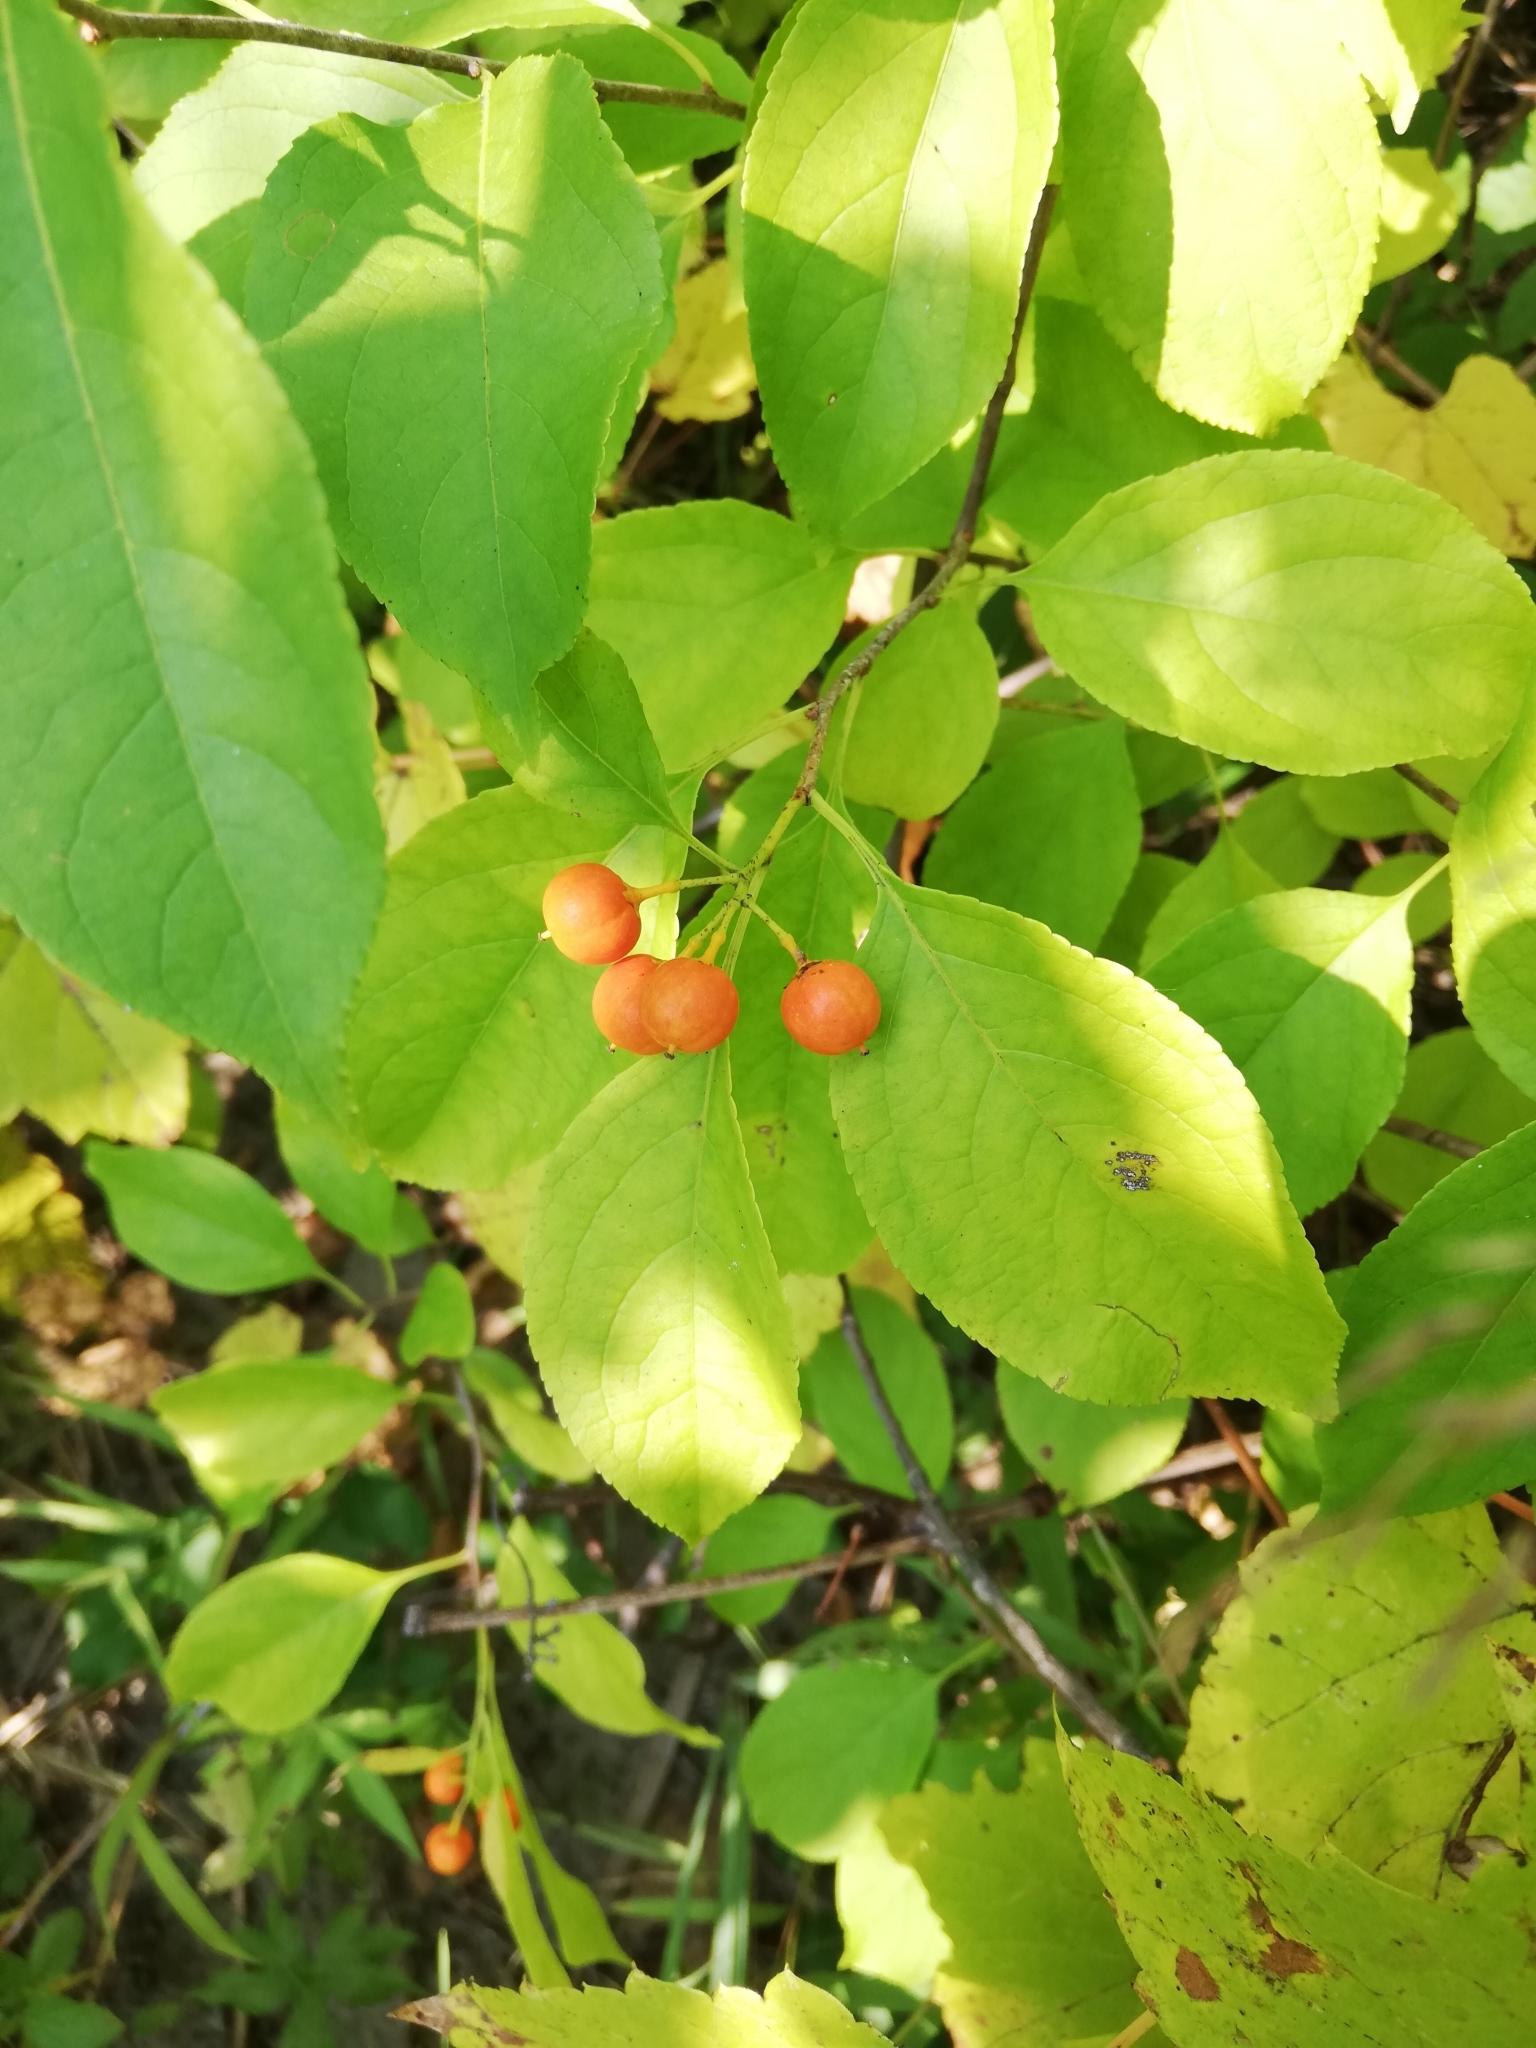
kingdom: Plantae
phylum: Tracheophyta
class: Magnoliopsida
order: Celastrales
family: Celastraceae
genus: Celastrus
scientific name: Celastrus scandens
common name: American bittersweet
